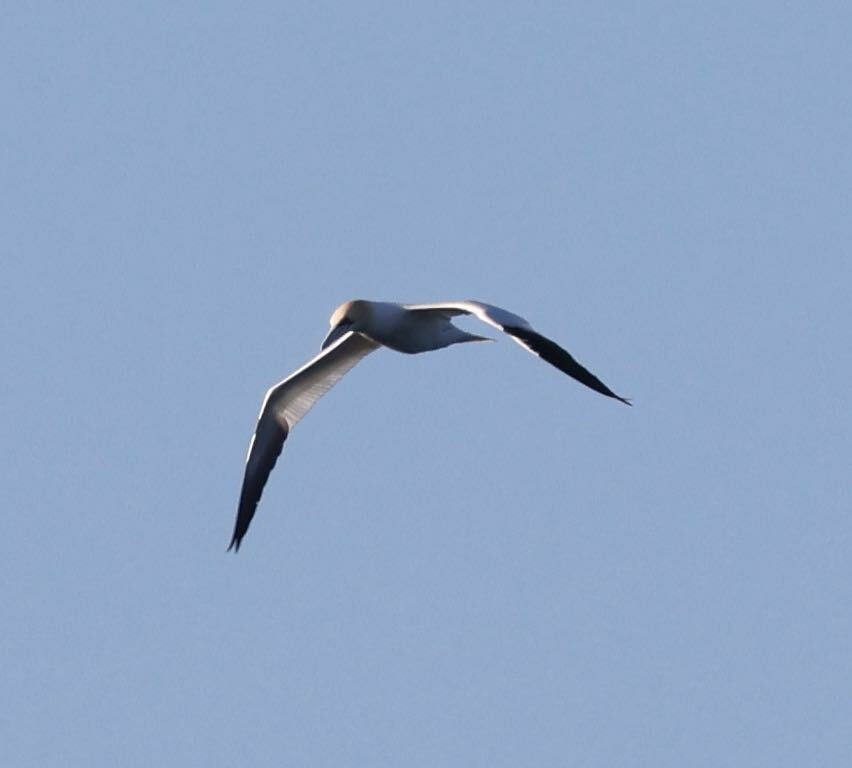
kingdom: Animalia
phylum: Chordata
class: Aves
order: Suliformes
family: Sulidae
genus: Morus
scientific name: Morus bassanus
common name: Northern gannet
